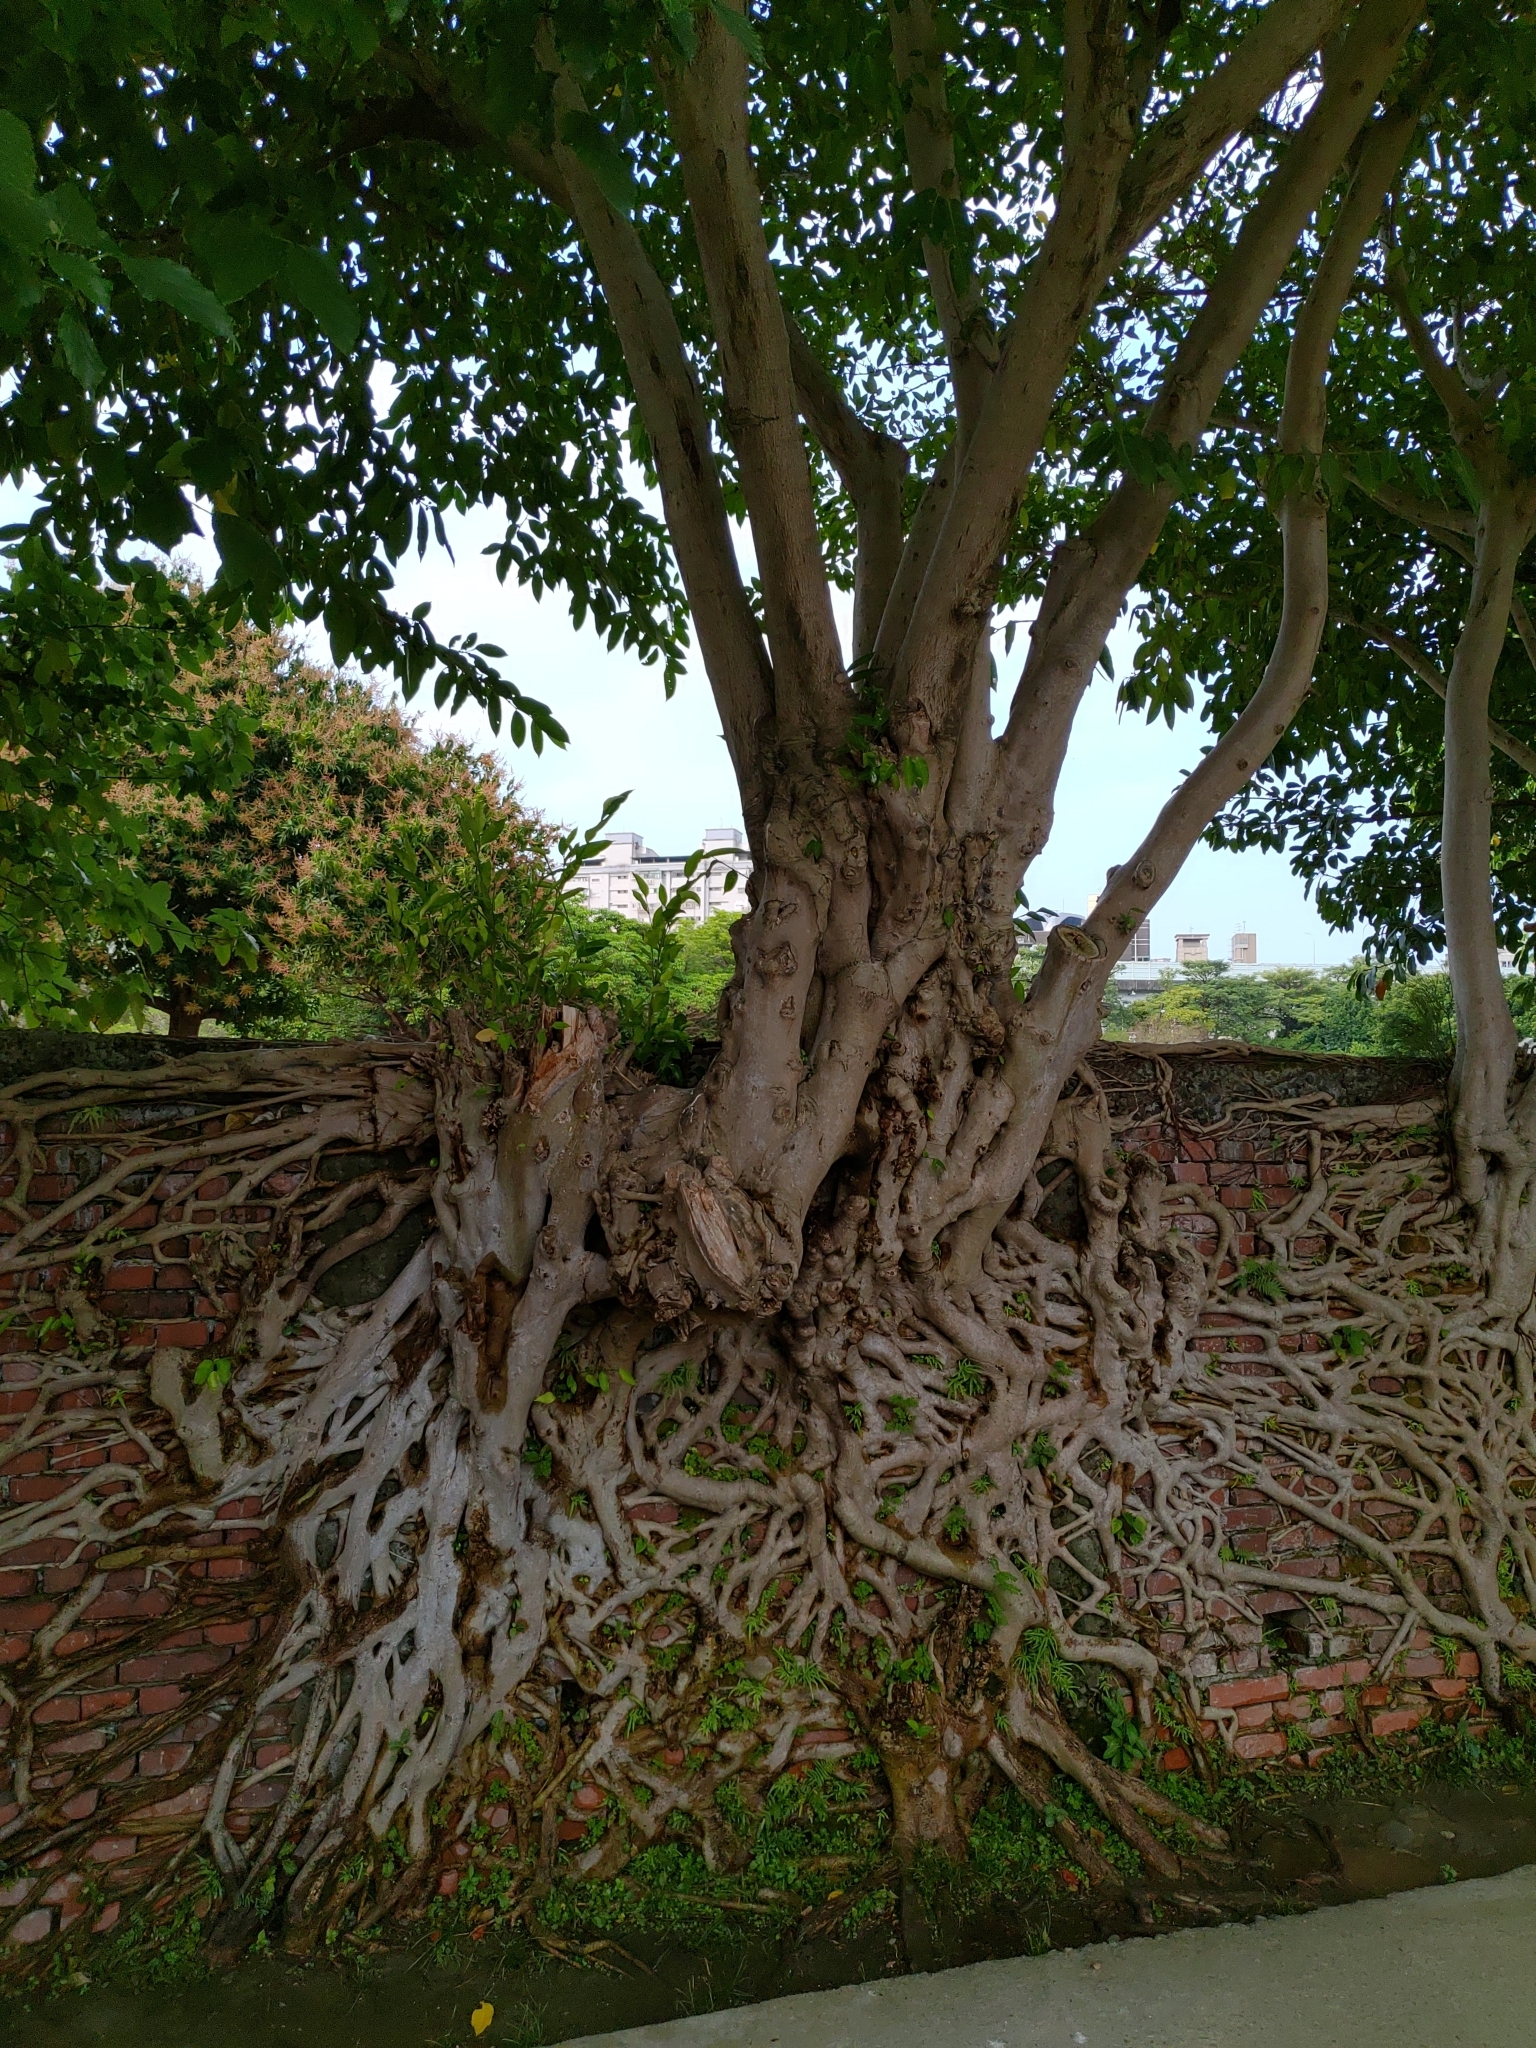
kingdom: Plantae
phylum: Tracheophyta
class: Magnoliopsida
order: Rosales
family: Moraceae
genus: Ficus
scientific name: Ficus virgata
